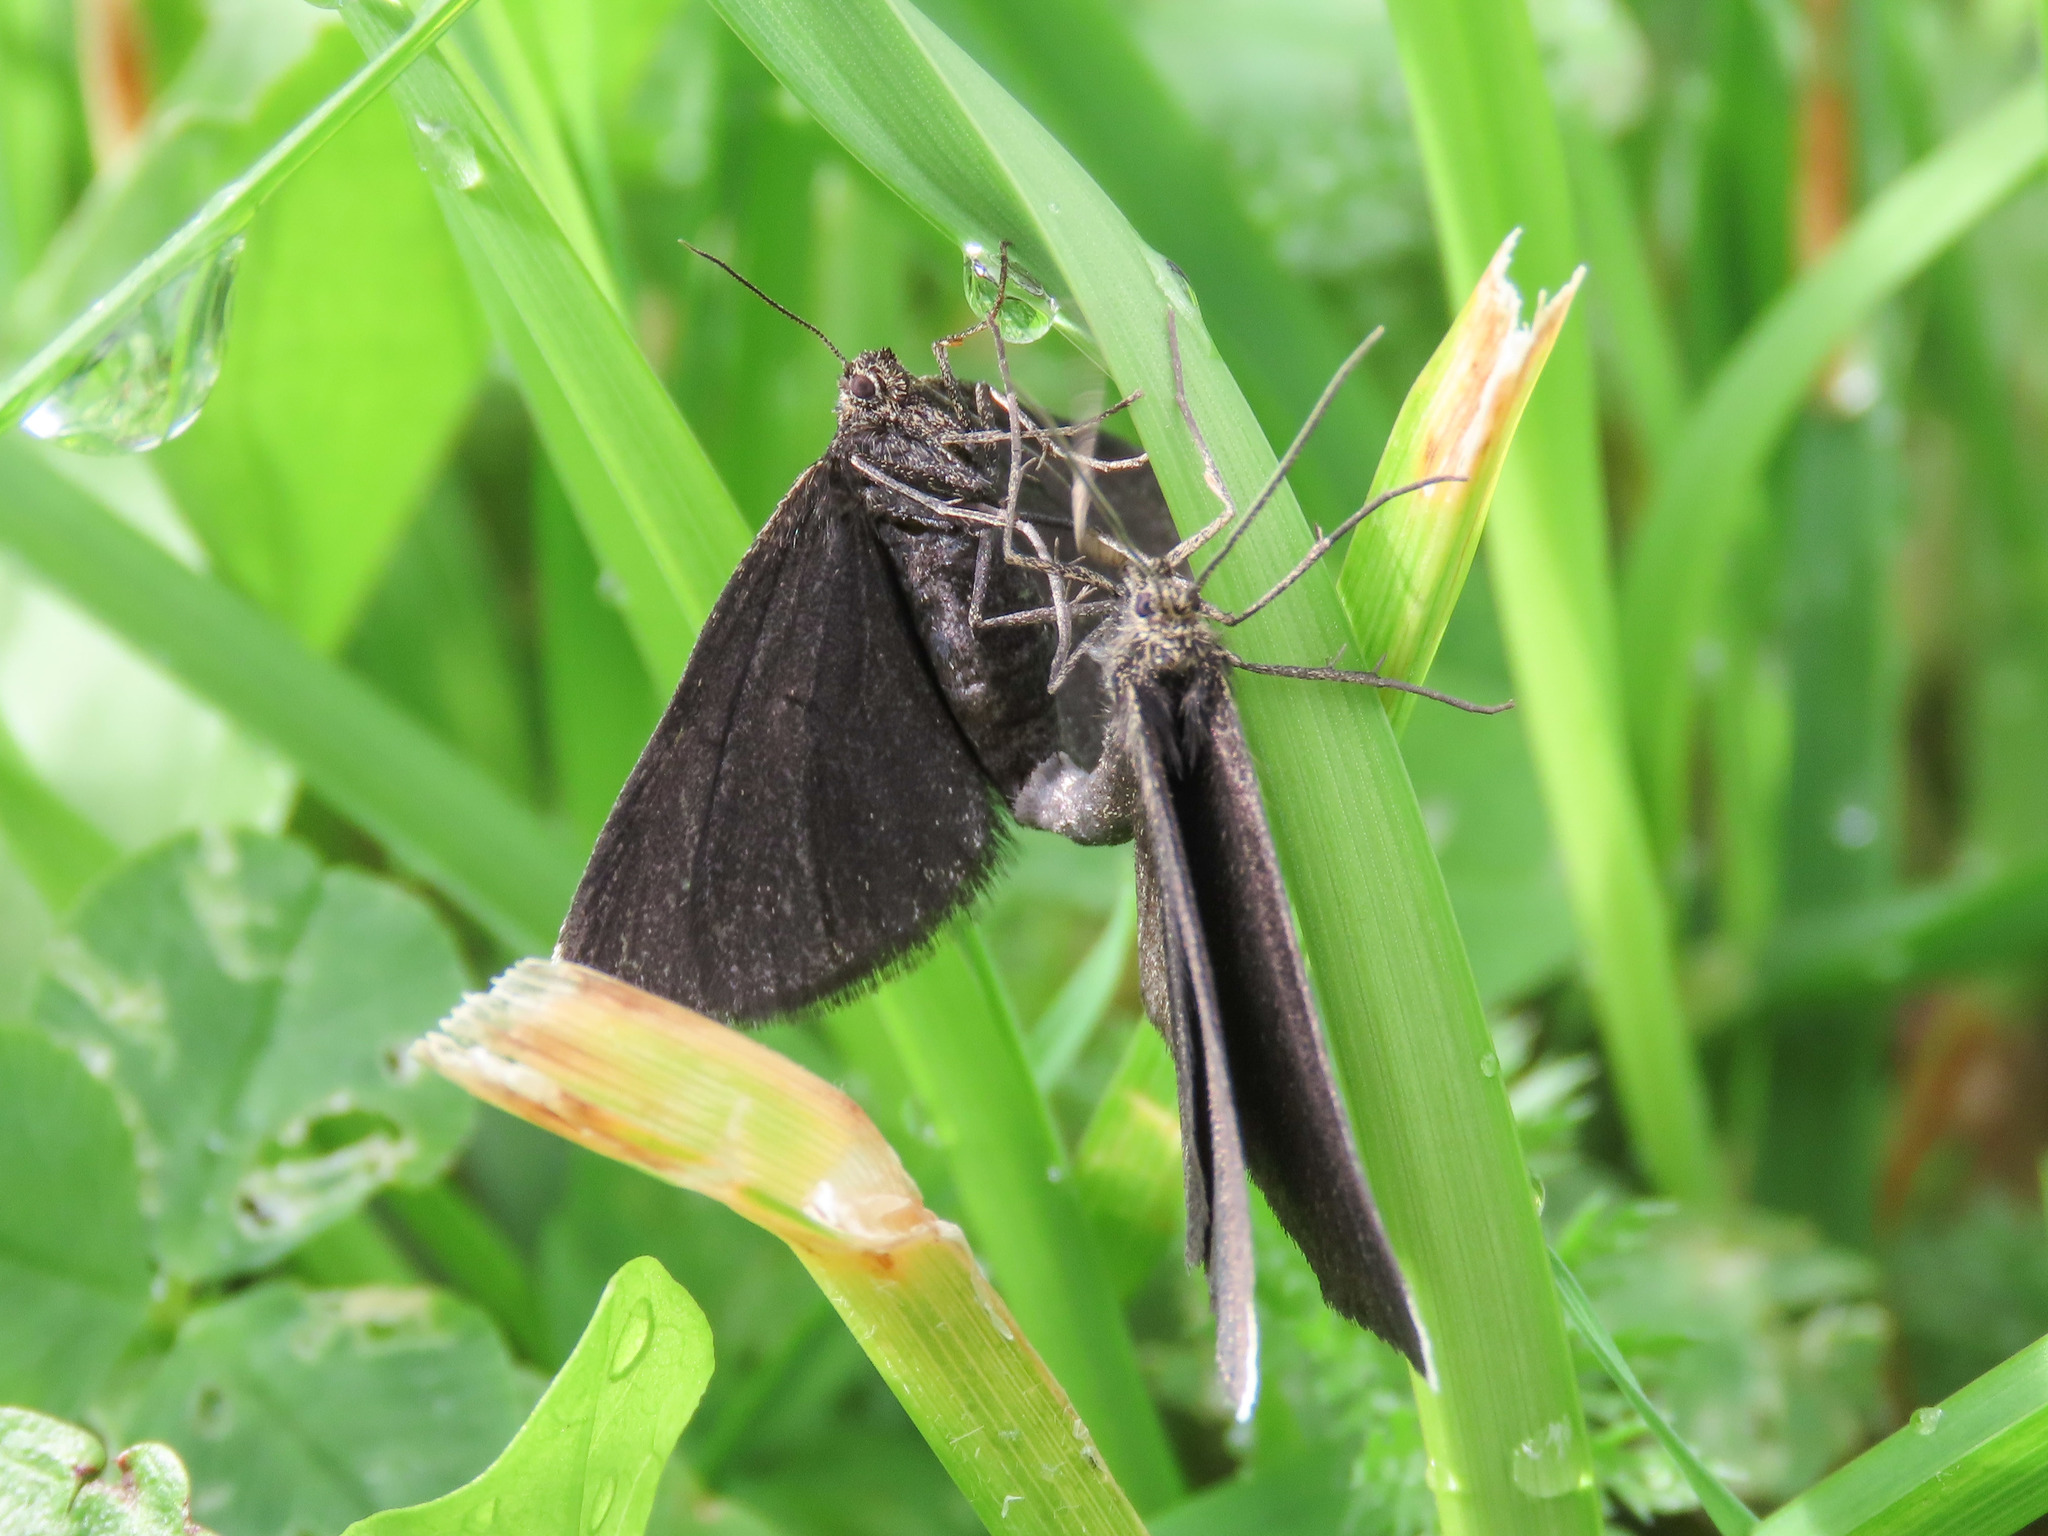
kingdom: Animalia
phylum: Arthropoda
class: Insecta
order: Lepidoptera
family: Geometridae
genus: Odezia
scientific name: Odezia atrata
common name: Chimney sweeper
